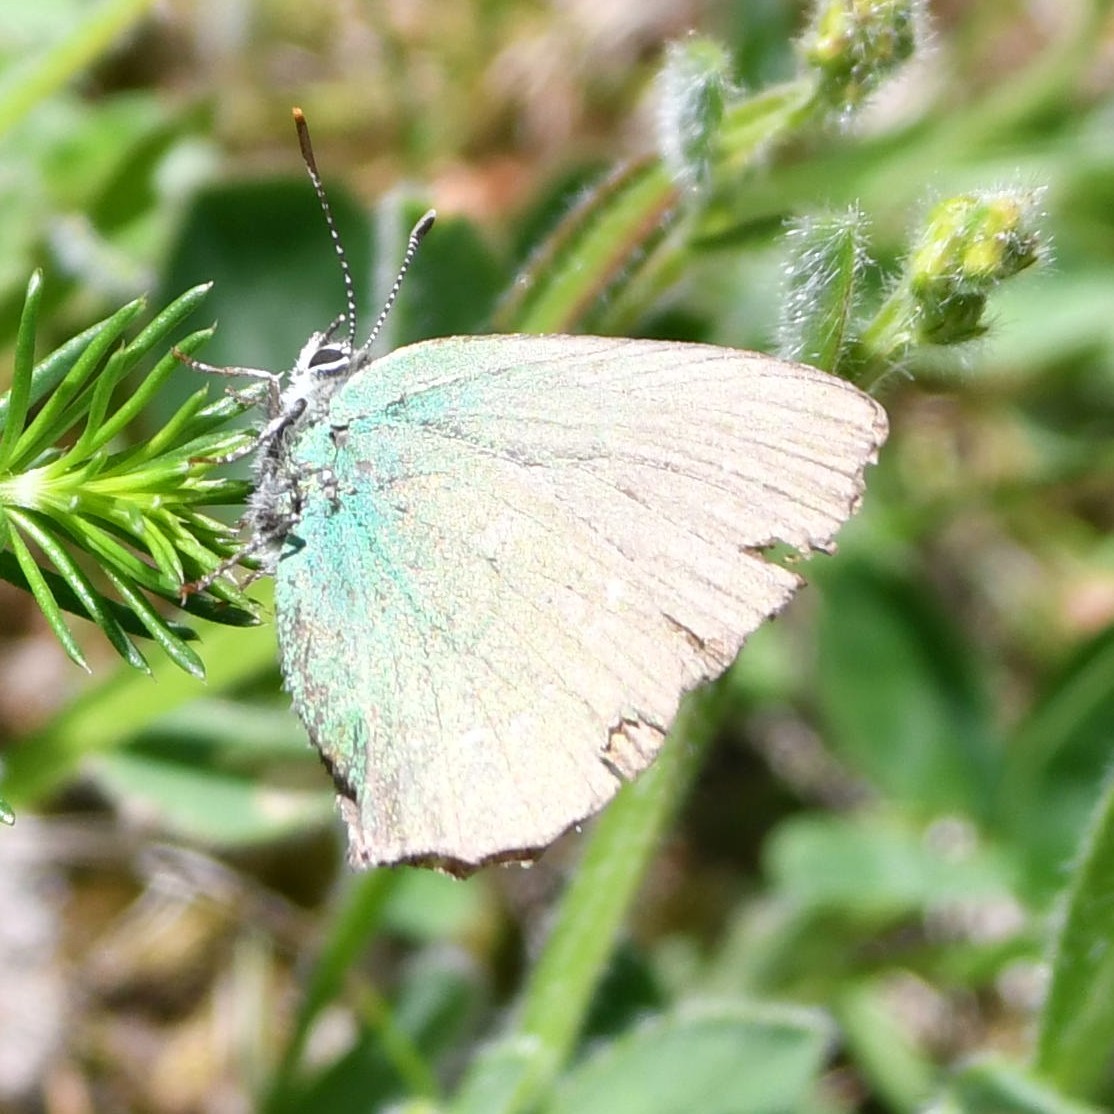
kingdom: Animalia
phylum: Arthropoda
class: Insecta
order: Lepidoptera
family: Lycaenidae
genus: Callophrys
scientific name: Callophrys rubi
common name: Green hairstreak
